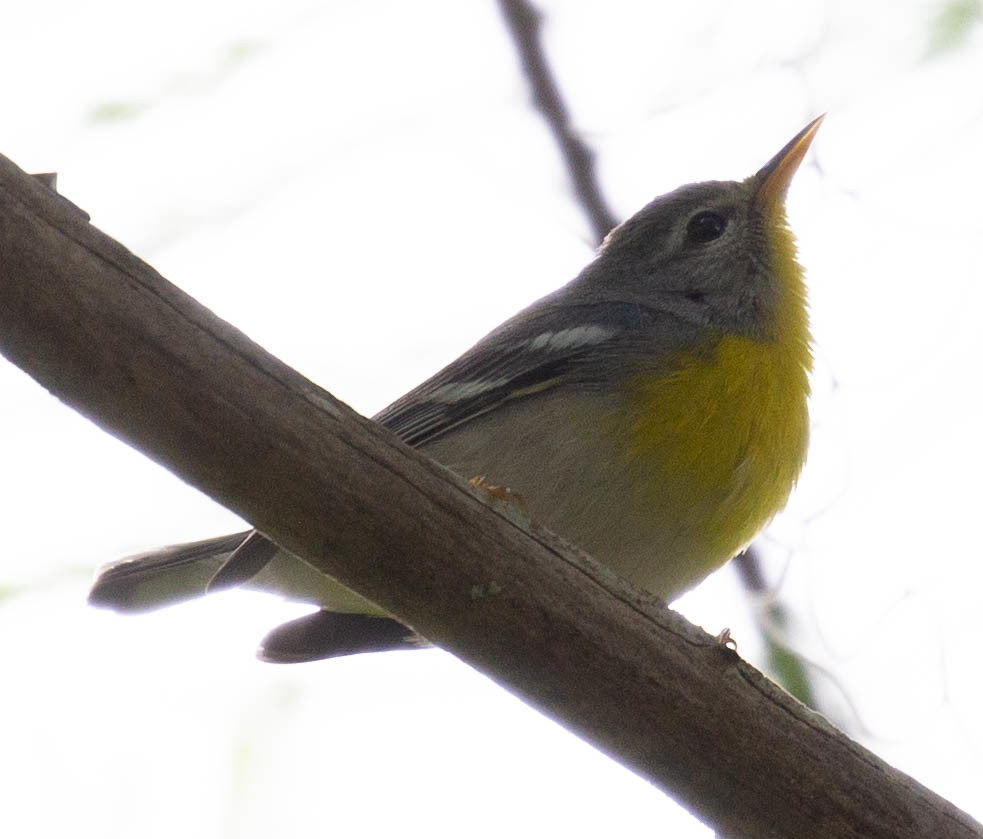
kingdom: Animalia
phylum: Chordata
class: Aves
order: Passeriformes
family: Parulidae
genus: Setophaga
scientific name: Setophaga americana
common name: Northern parula
